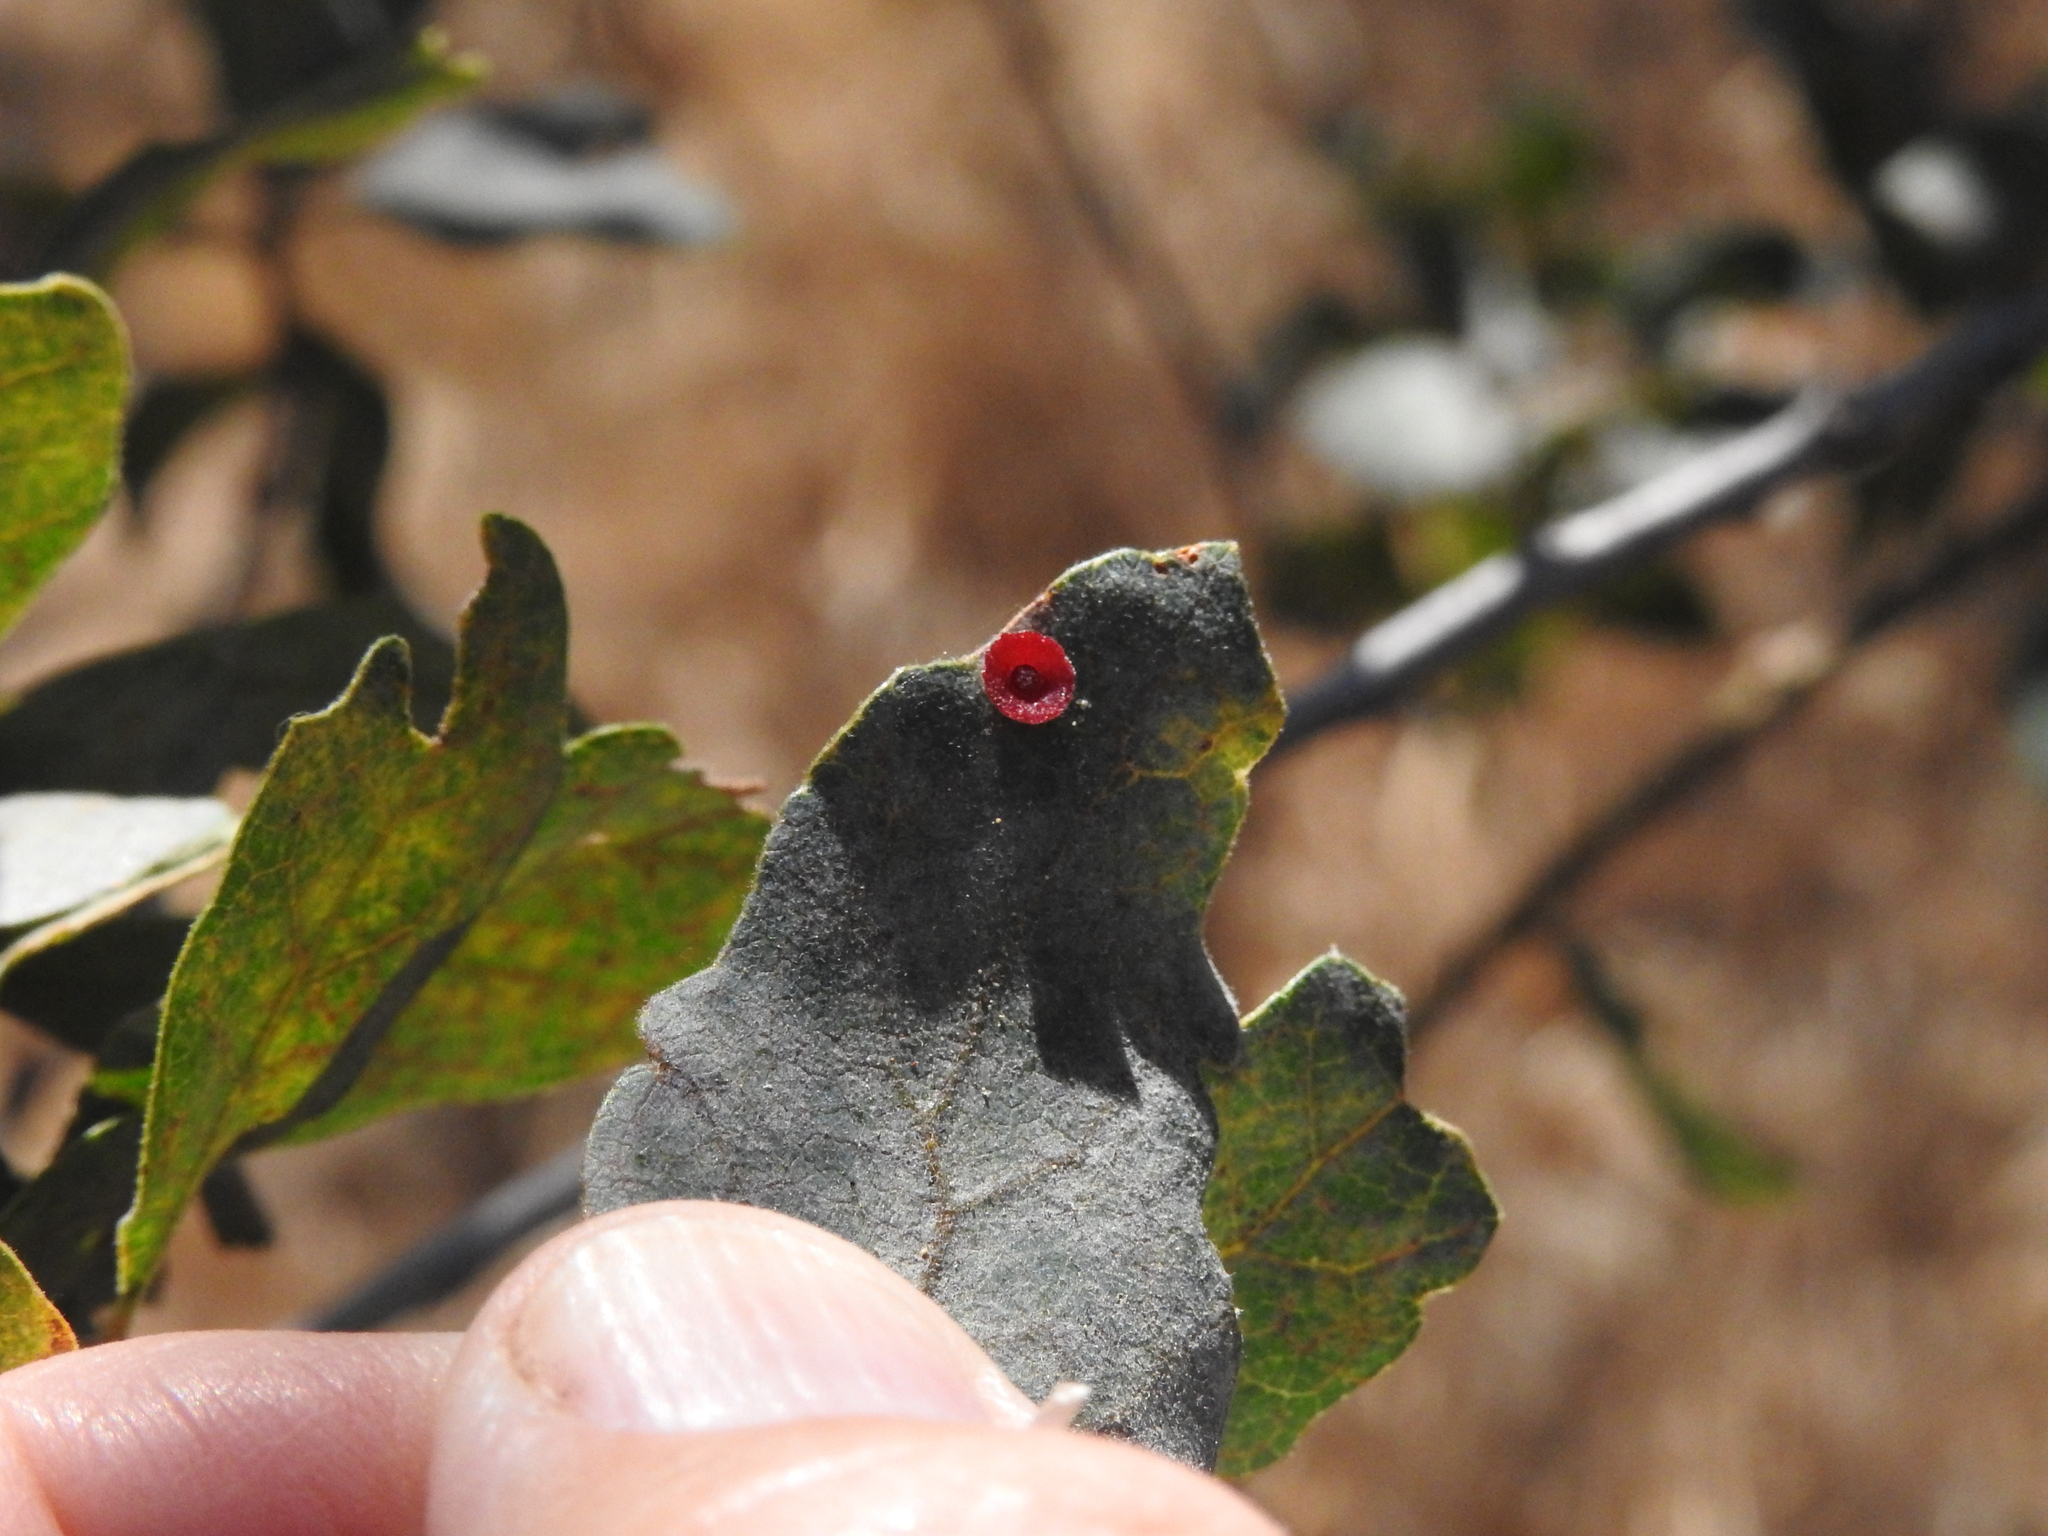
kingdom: Animalia
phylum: Arthropoda
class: Insecta
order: Hymenoptera
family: Cynipidae
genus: Andricus
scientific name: Andricus
